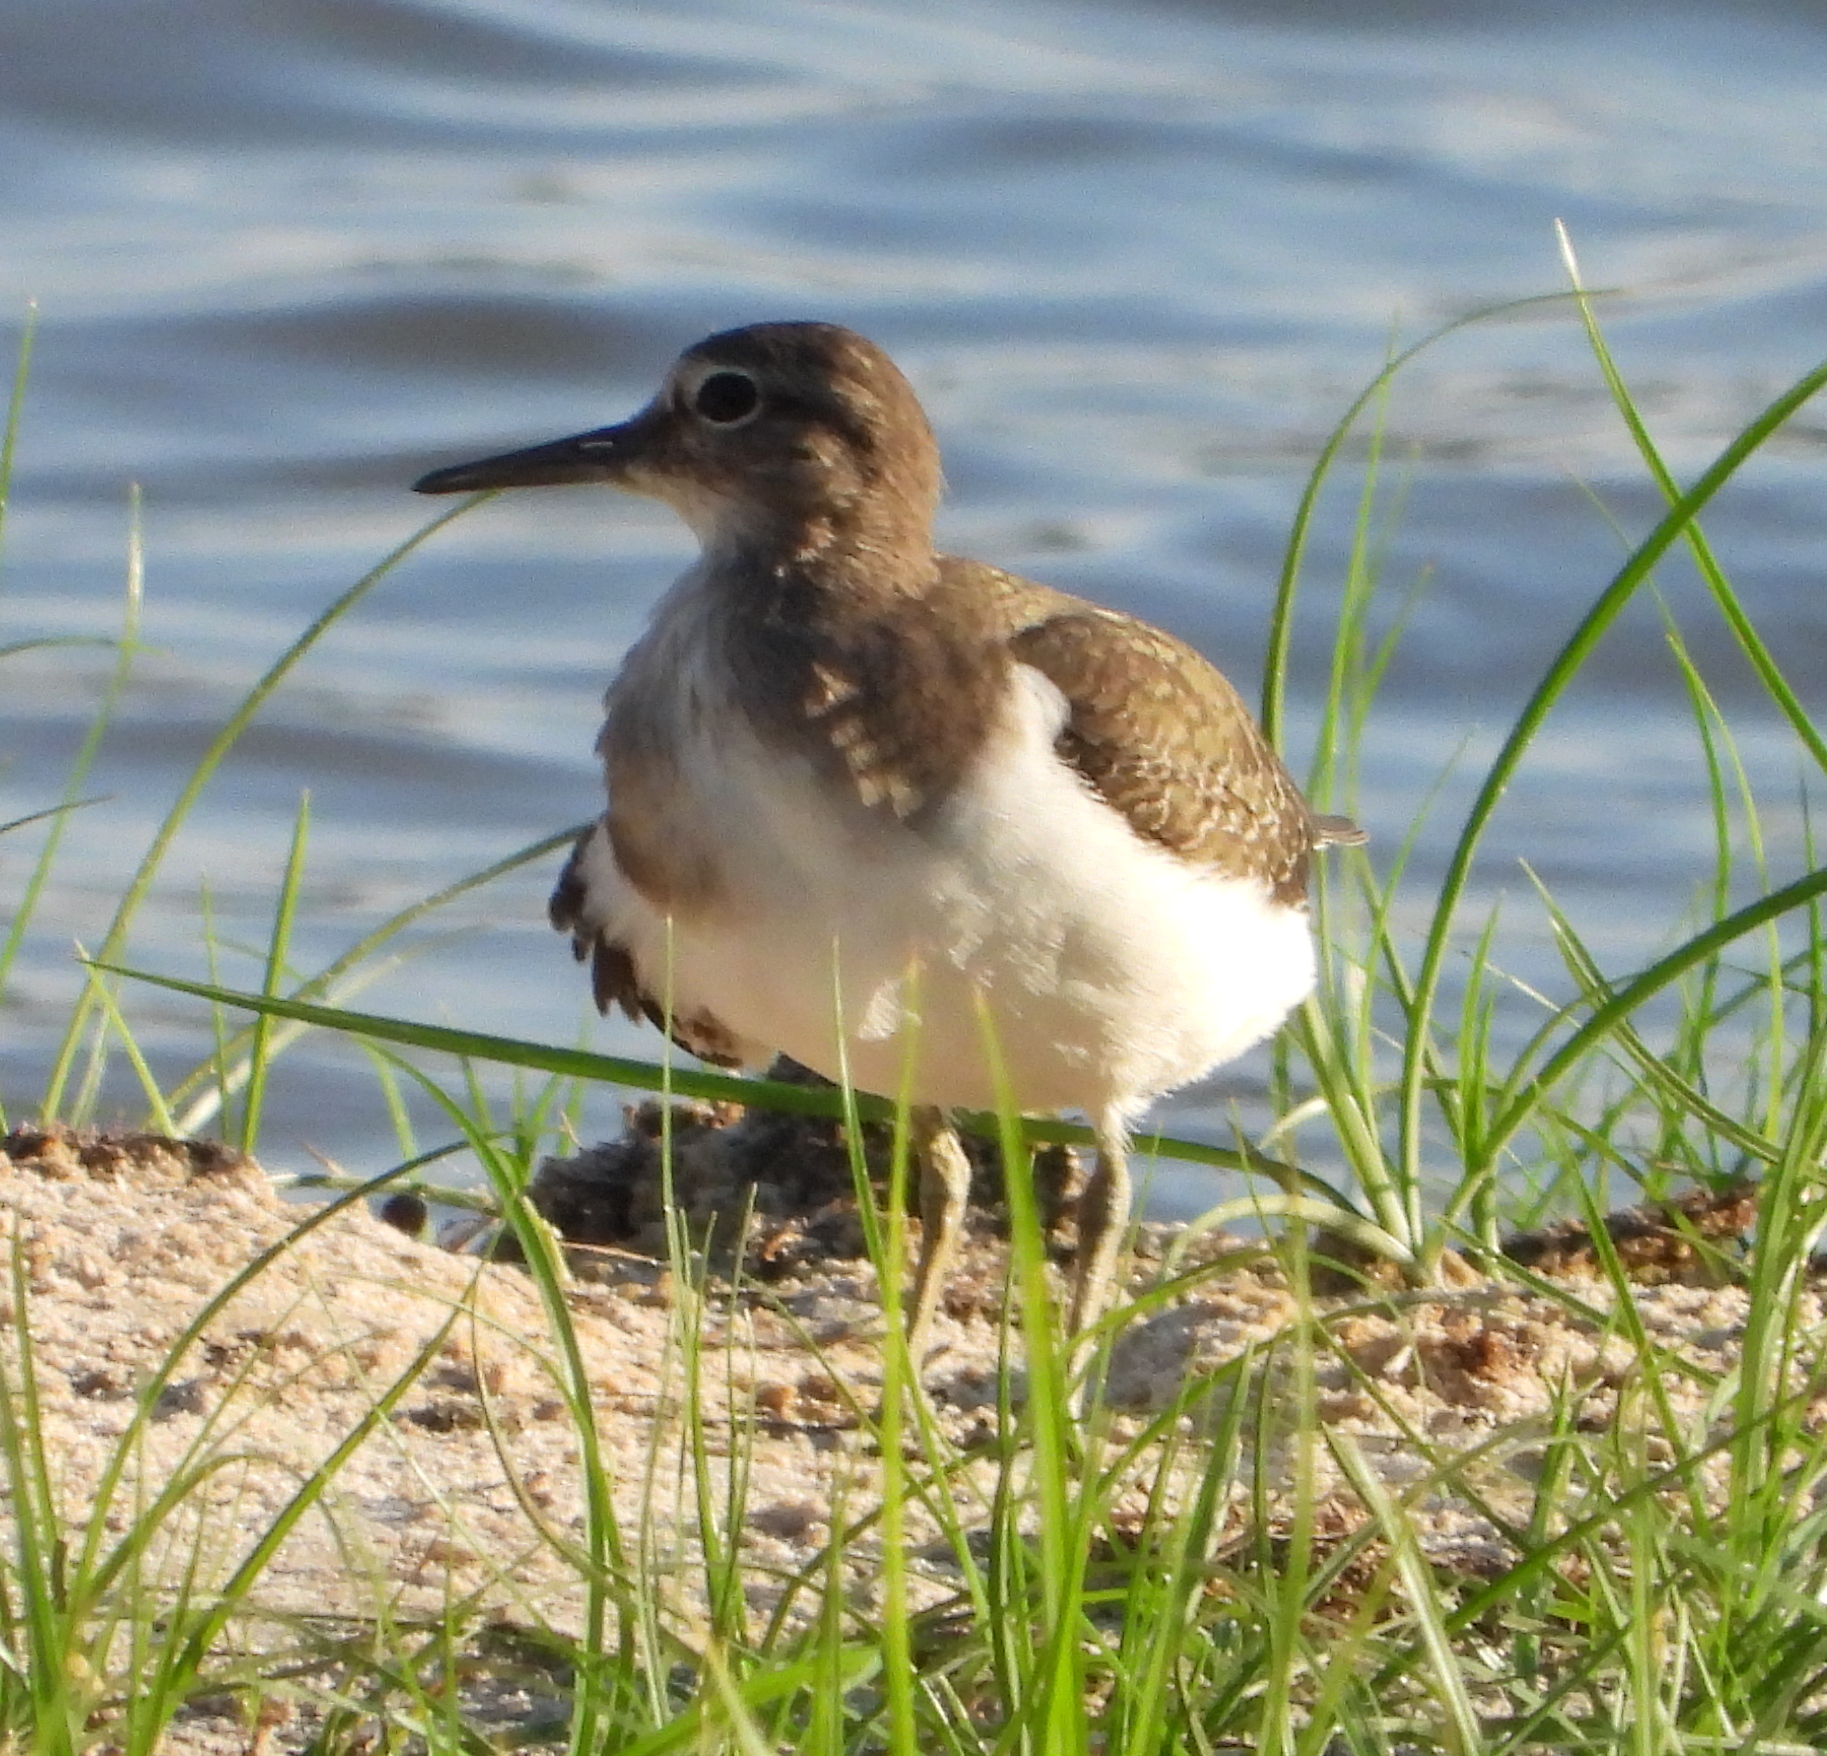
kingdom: Animalia
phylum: Chordata
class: Aves
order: Charadriiformes
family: Scolopacidae
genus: Actitis
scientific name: Actitis hypoleucos
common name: Common sandpiper
